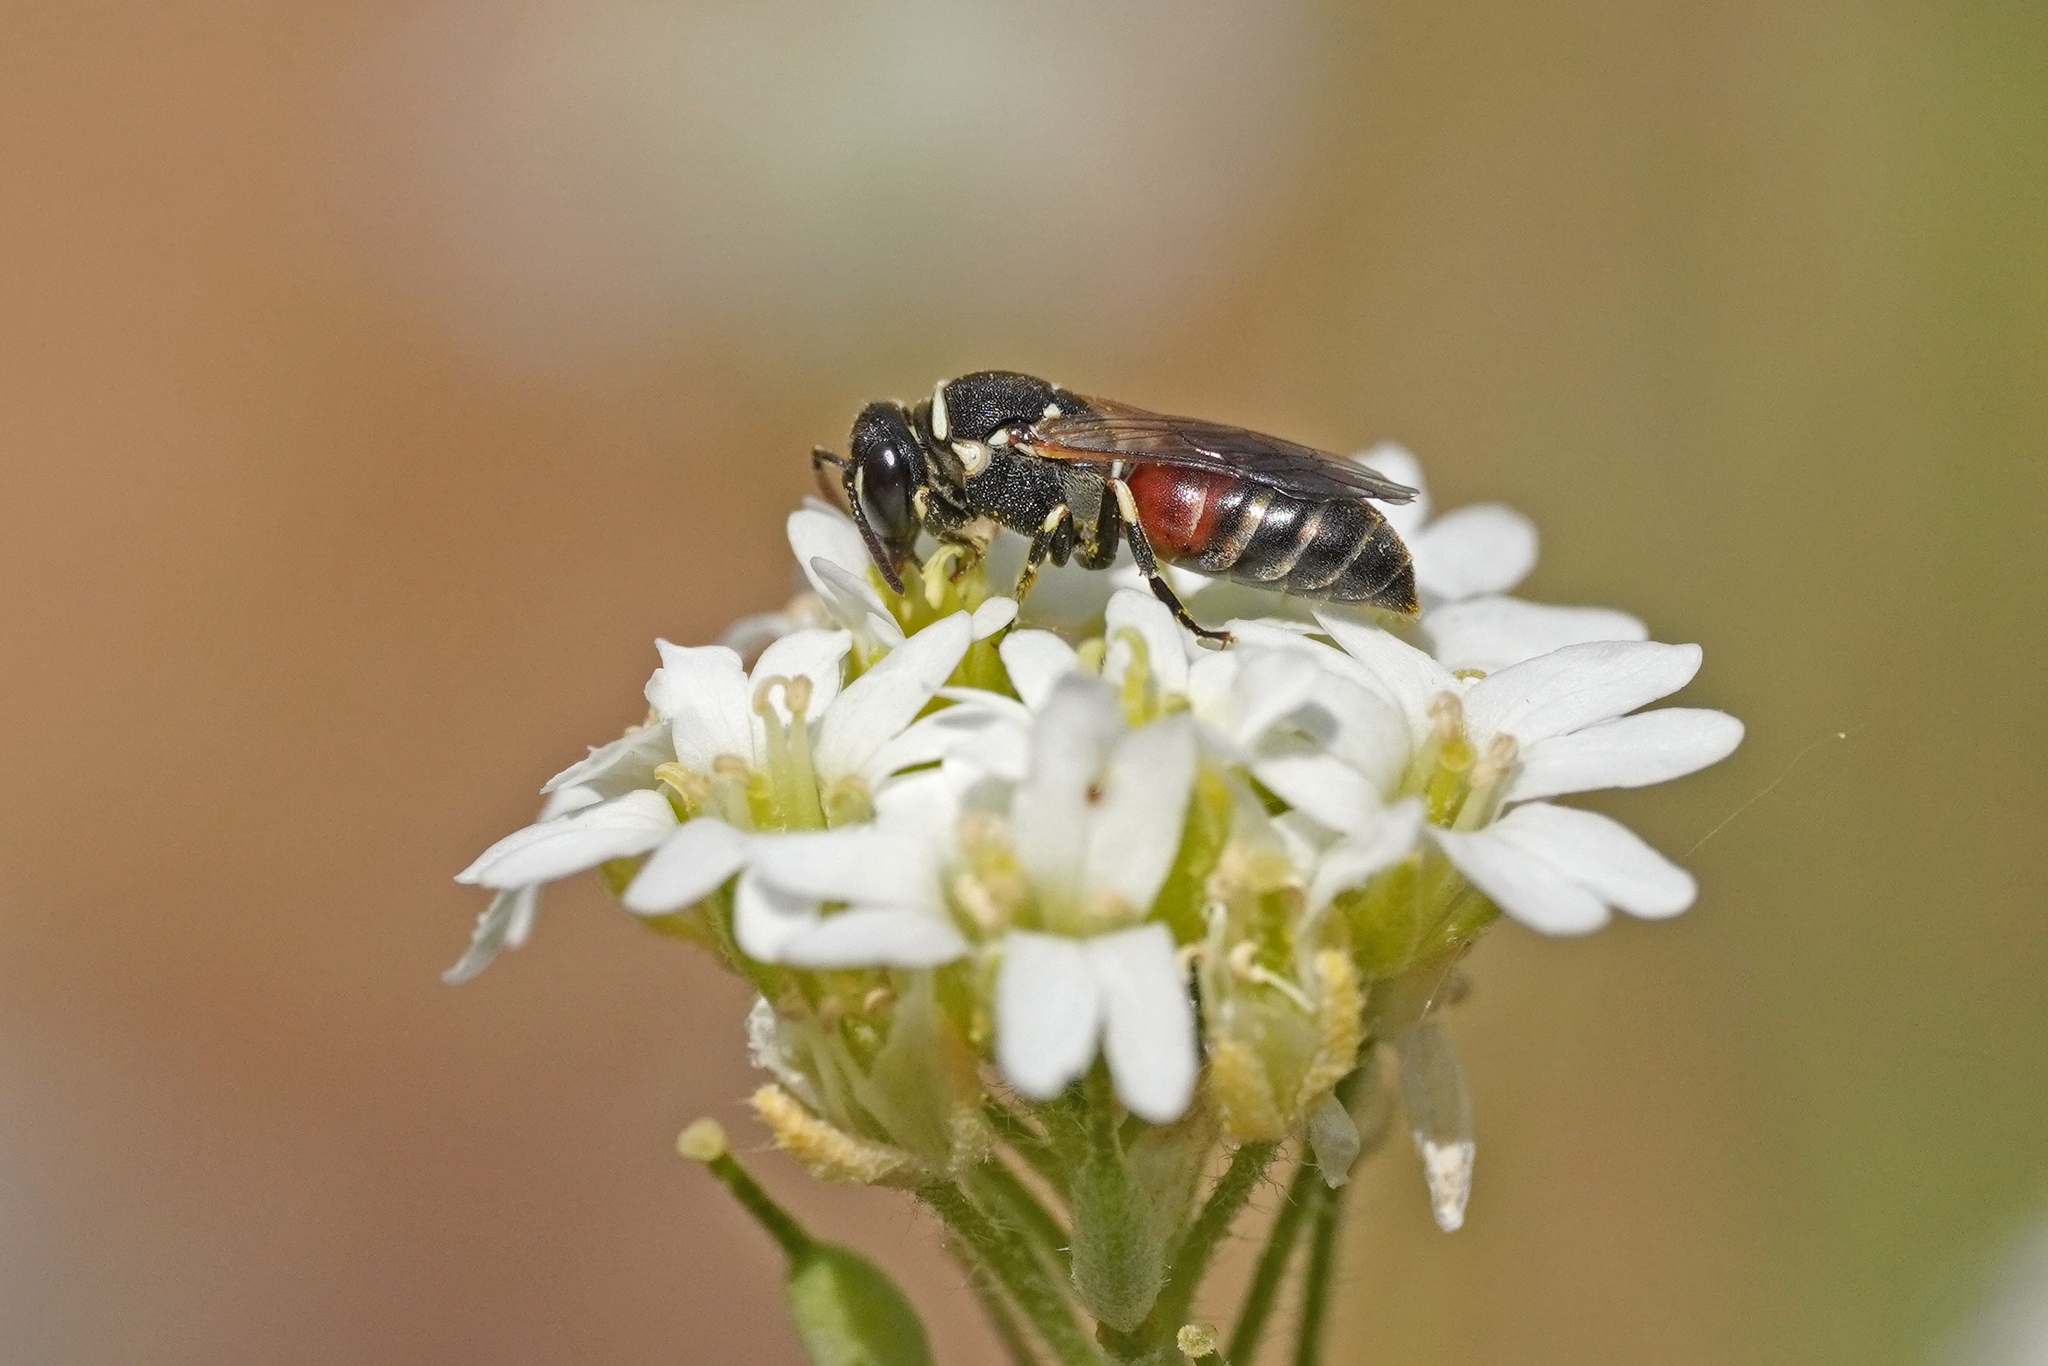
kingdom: Animalia
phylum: Arthropoda
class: Insecta
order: Hymenoptera
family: Colletidae
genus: Hylaeus
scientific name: Hylaeus variegatus
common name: Masked bee
